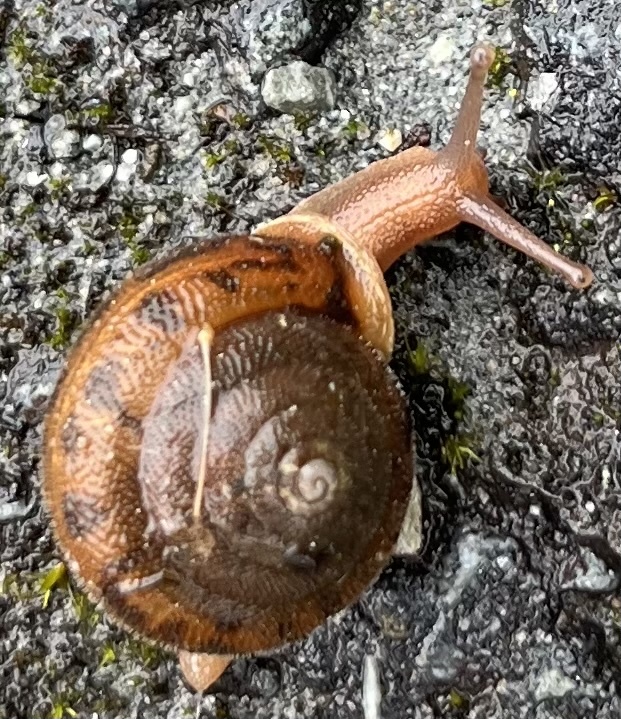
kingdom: Animalia
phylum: Mollusca
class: Gastropoda
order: Stylommatophora
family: Polygyridae
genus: Vespericola
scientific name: Vespericola columbianus
